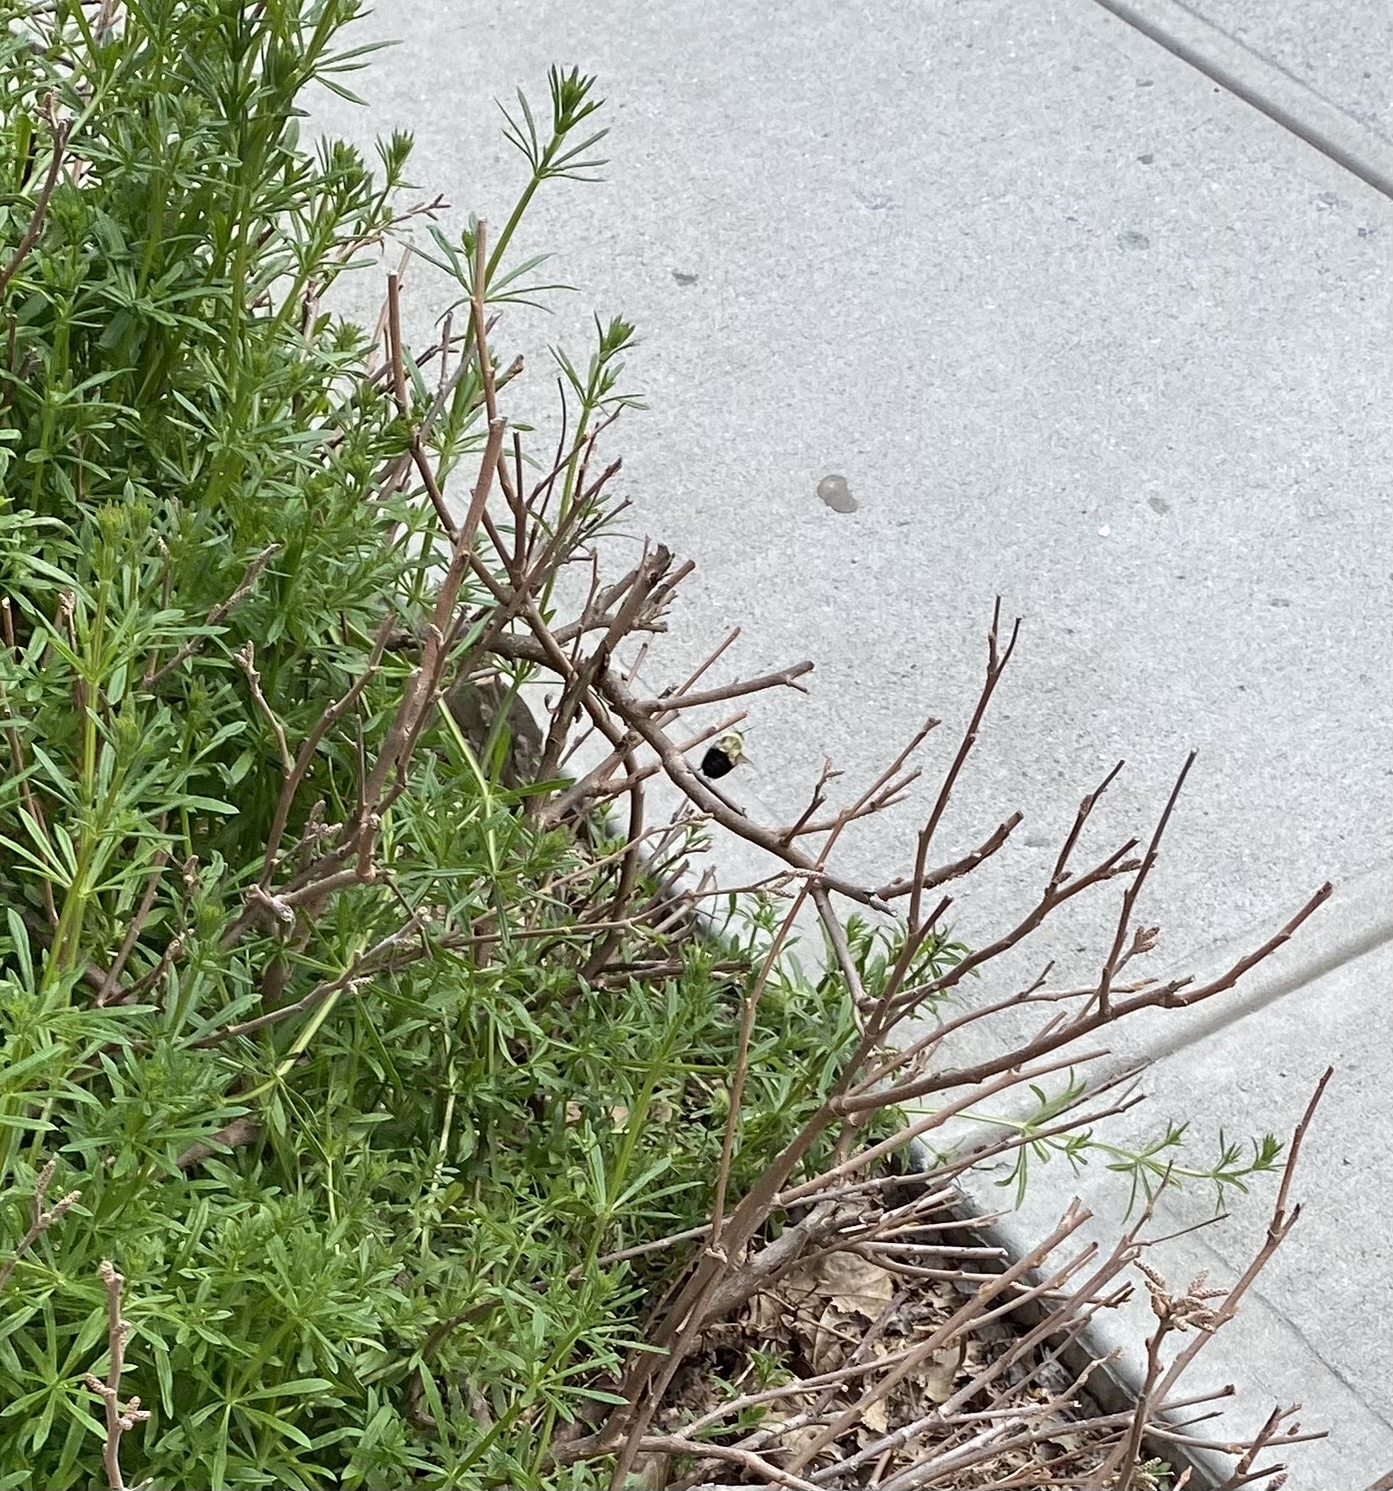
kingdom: Animalia
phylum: Arthropoda
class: Insecta
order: Hymenoptera
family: Apidae
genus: Bombus
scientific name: Bombus impatiens
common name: Common eastern bumble bee
